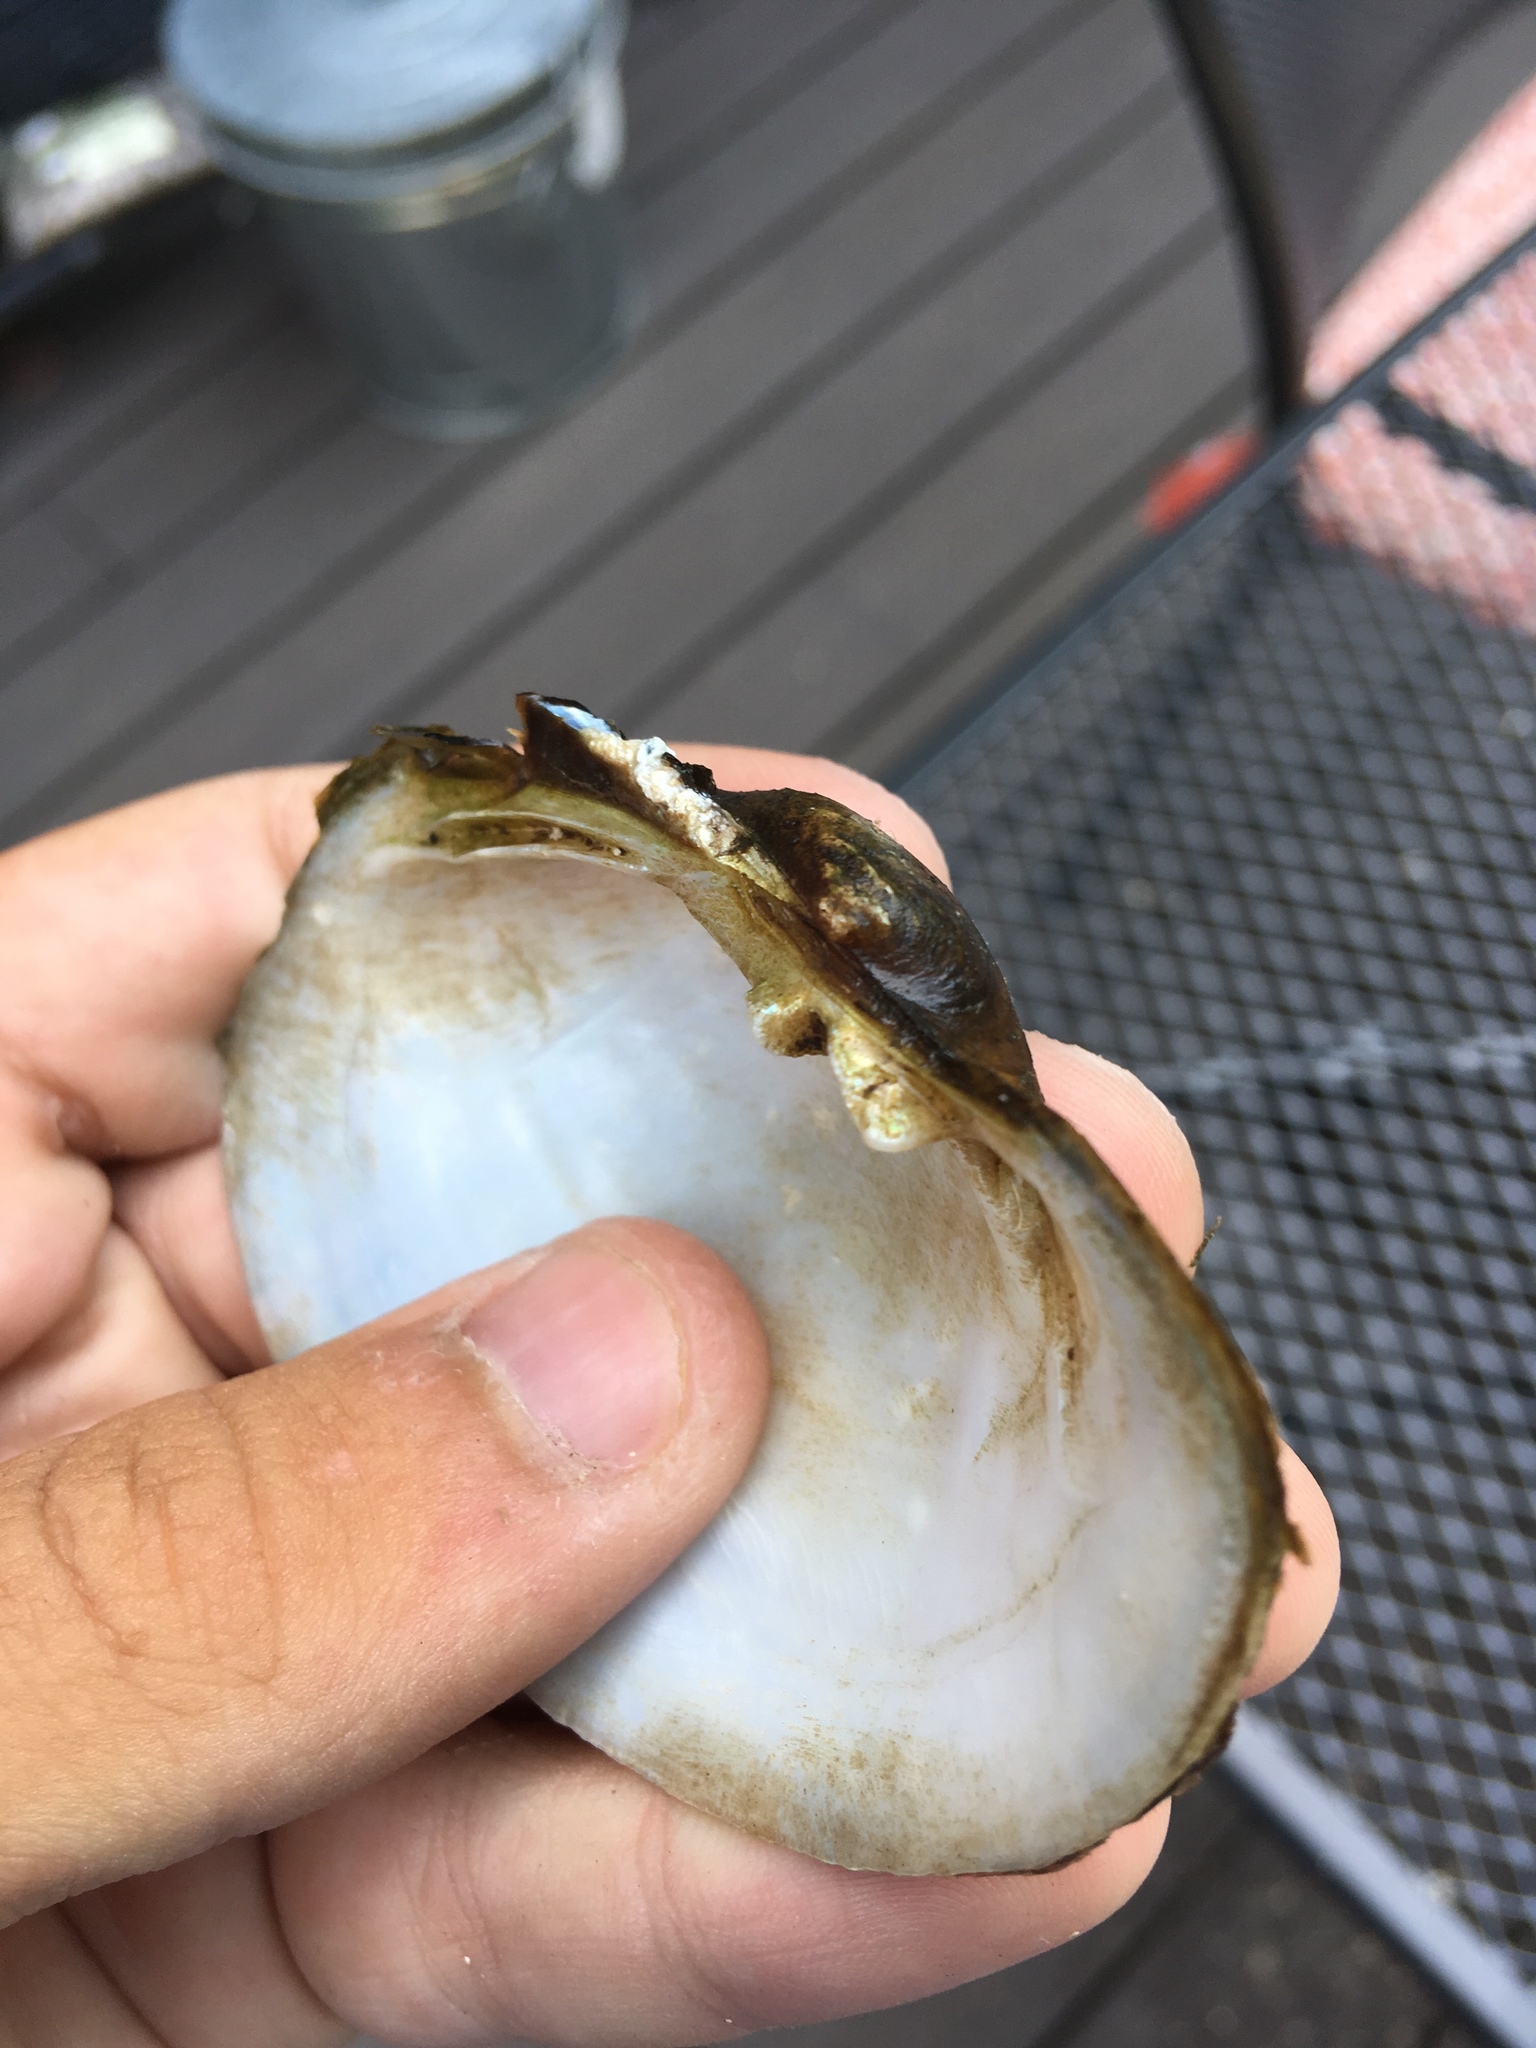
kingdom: Animalia
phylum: Mollusca
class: Bivalvia
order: Unionida
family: Unionidae
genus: Lampsilis
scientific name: Lampsilis cardium
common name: Plain pocketbook
